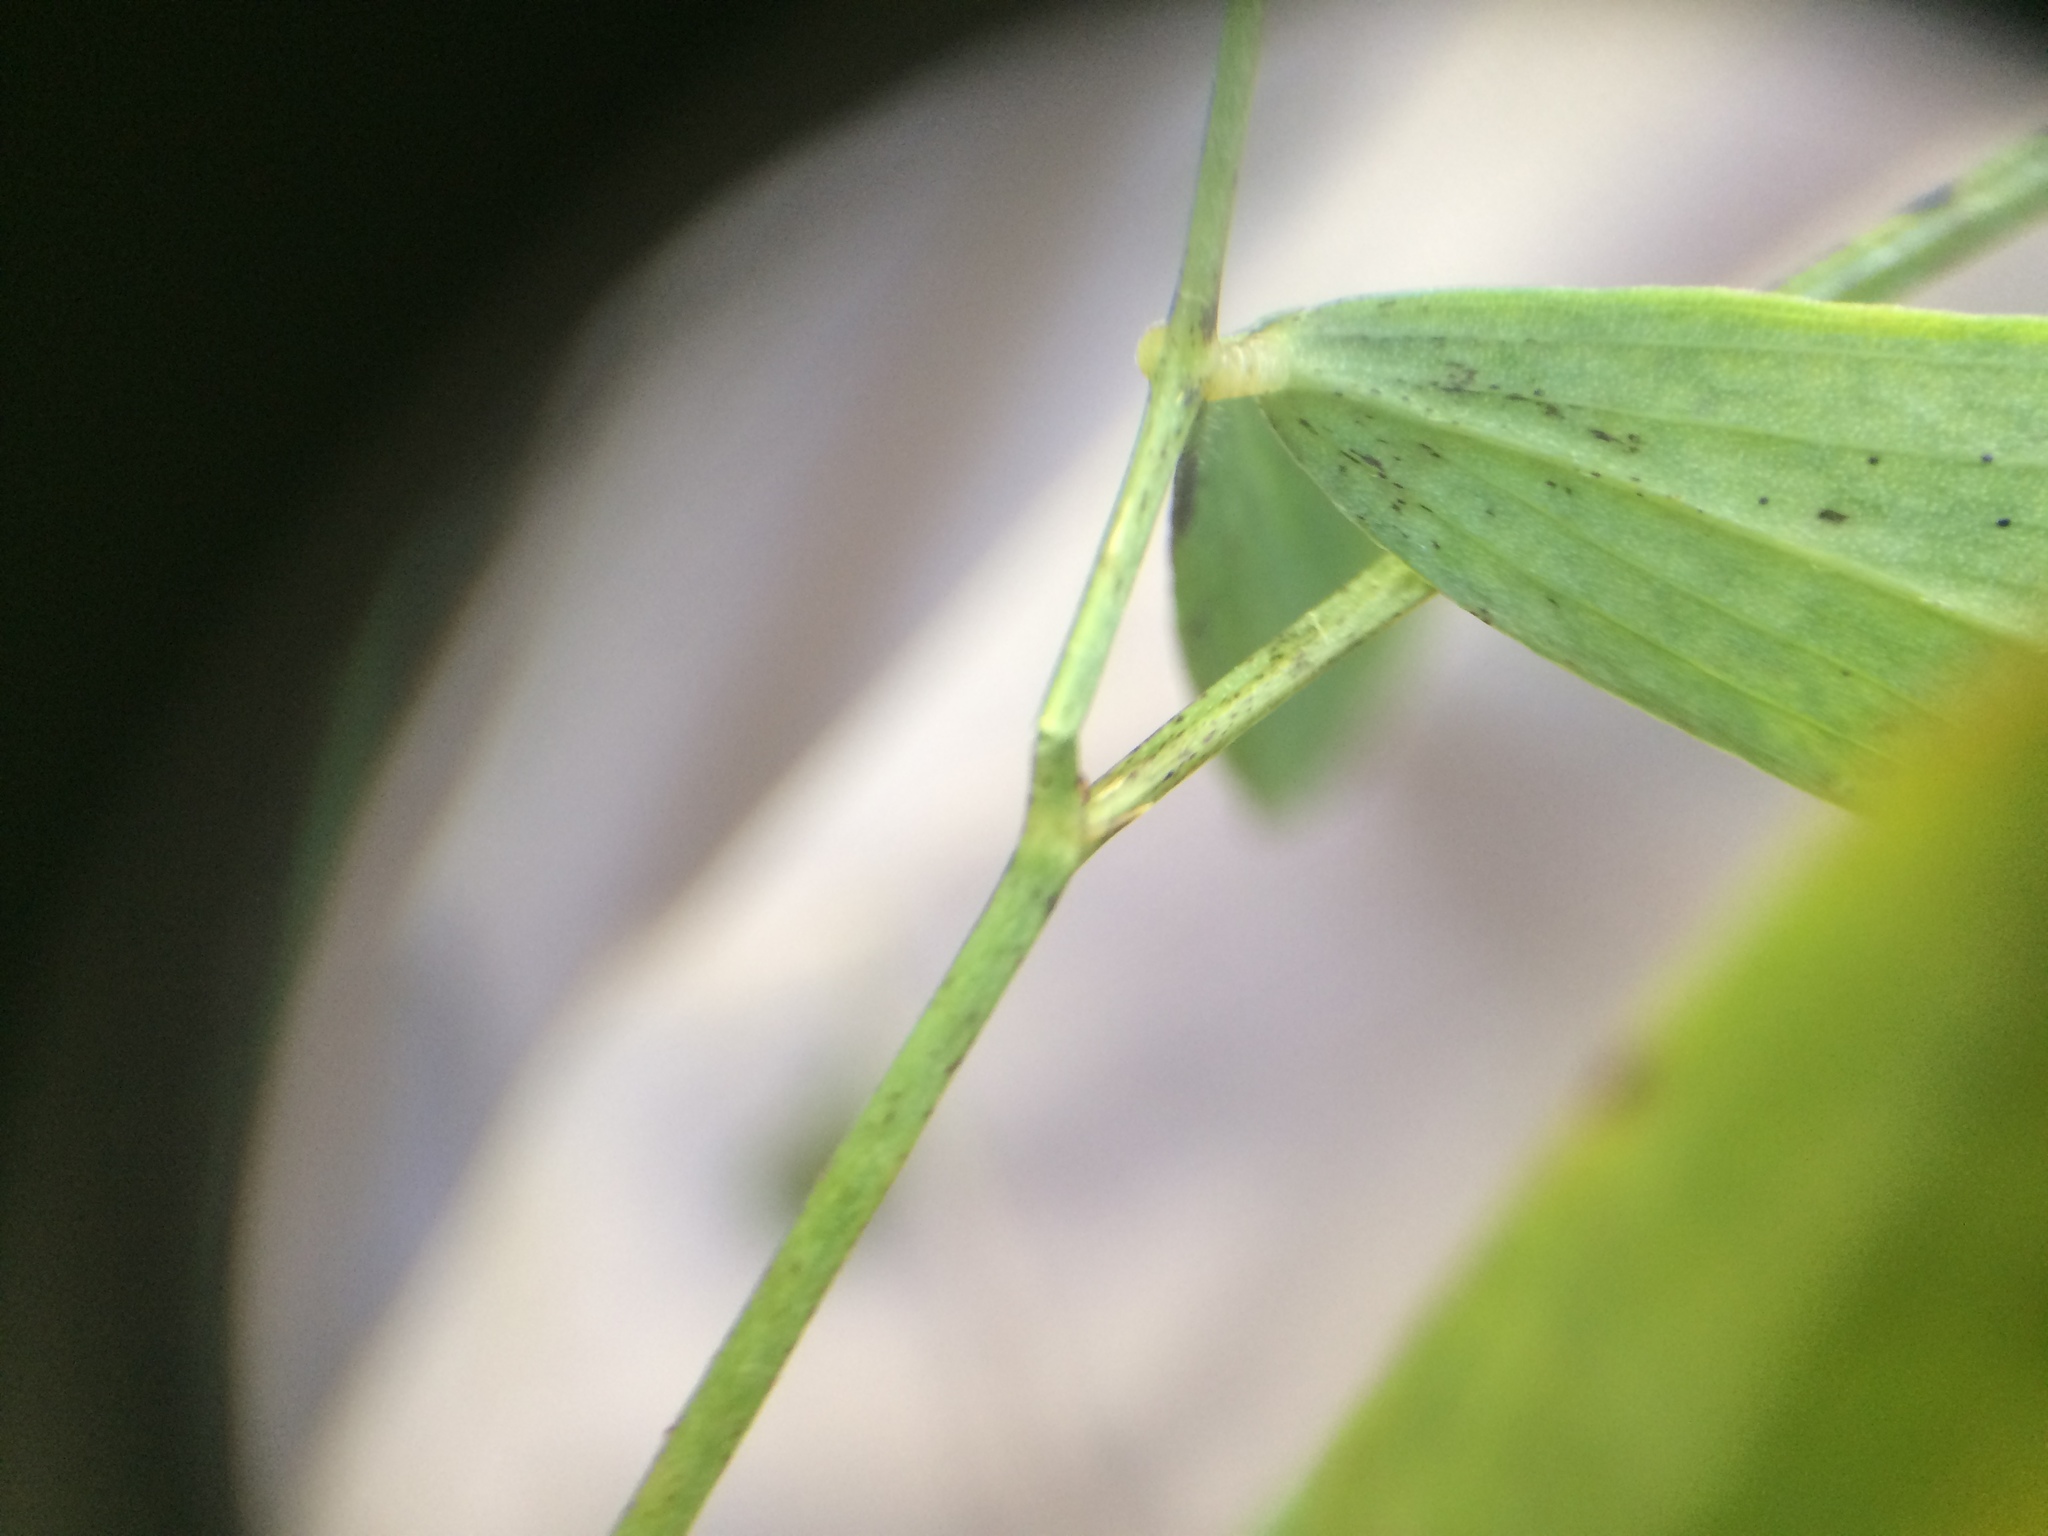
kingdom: Plantae
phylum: Tracheophyta
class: Magnoliopsida
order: Fabales
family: Fabaceae
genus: Lathyrus
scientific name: Lathyrus palustris
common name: Marsh pea
